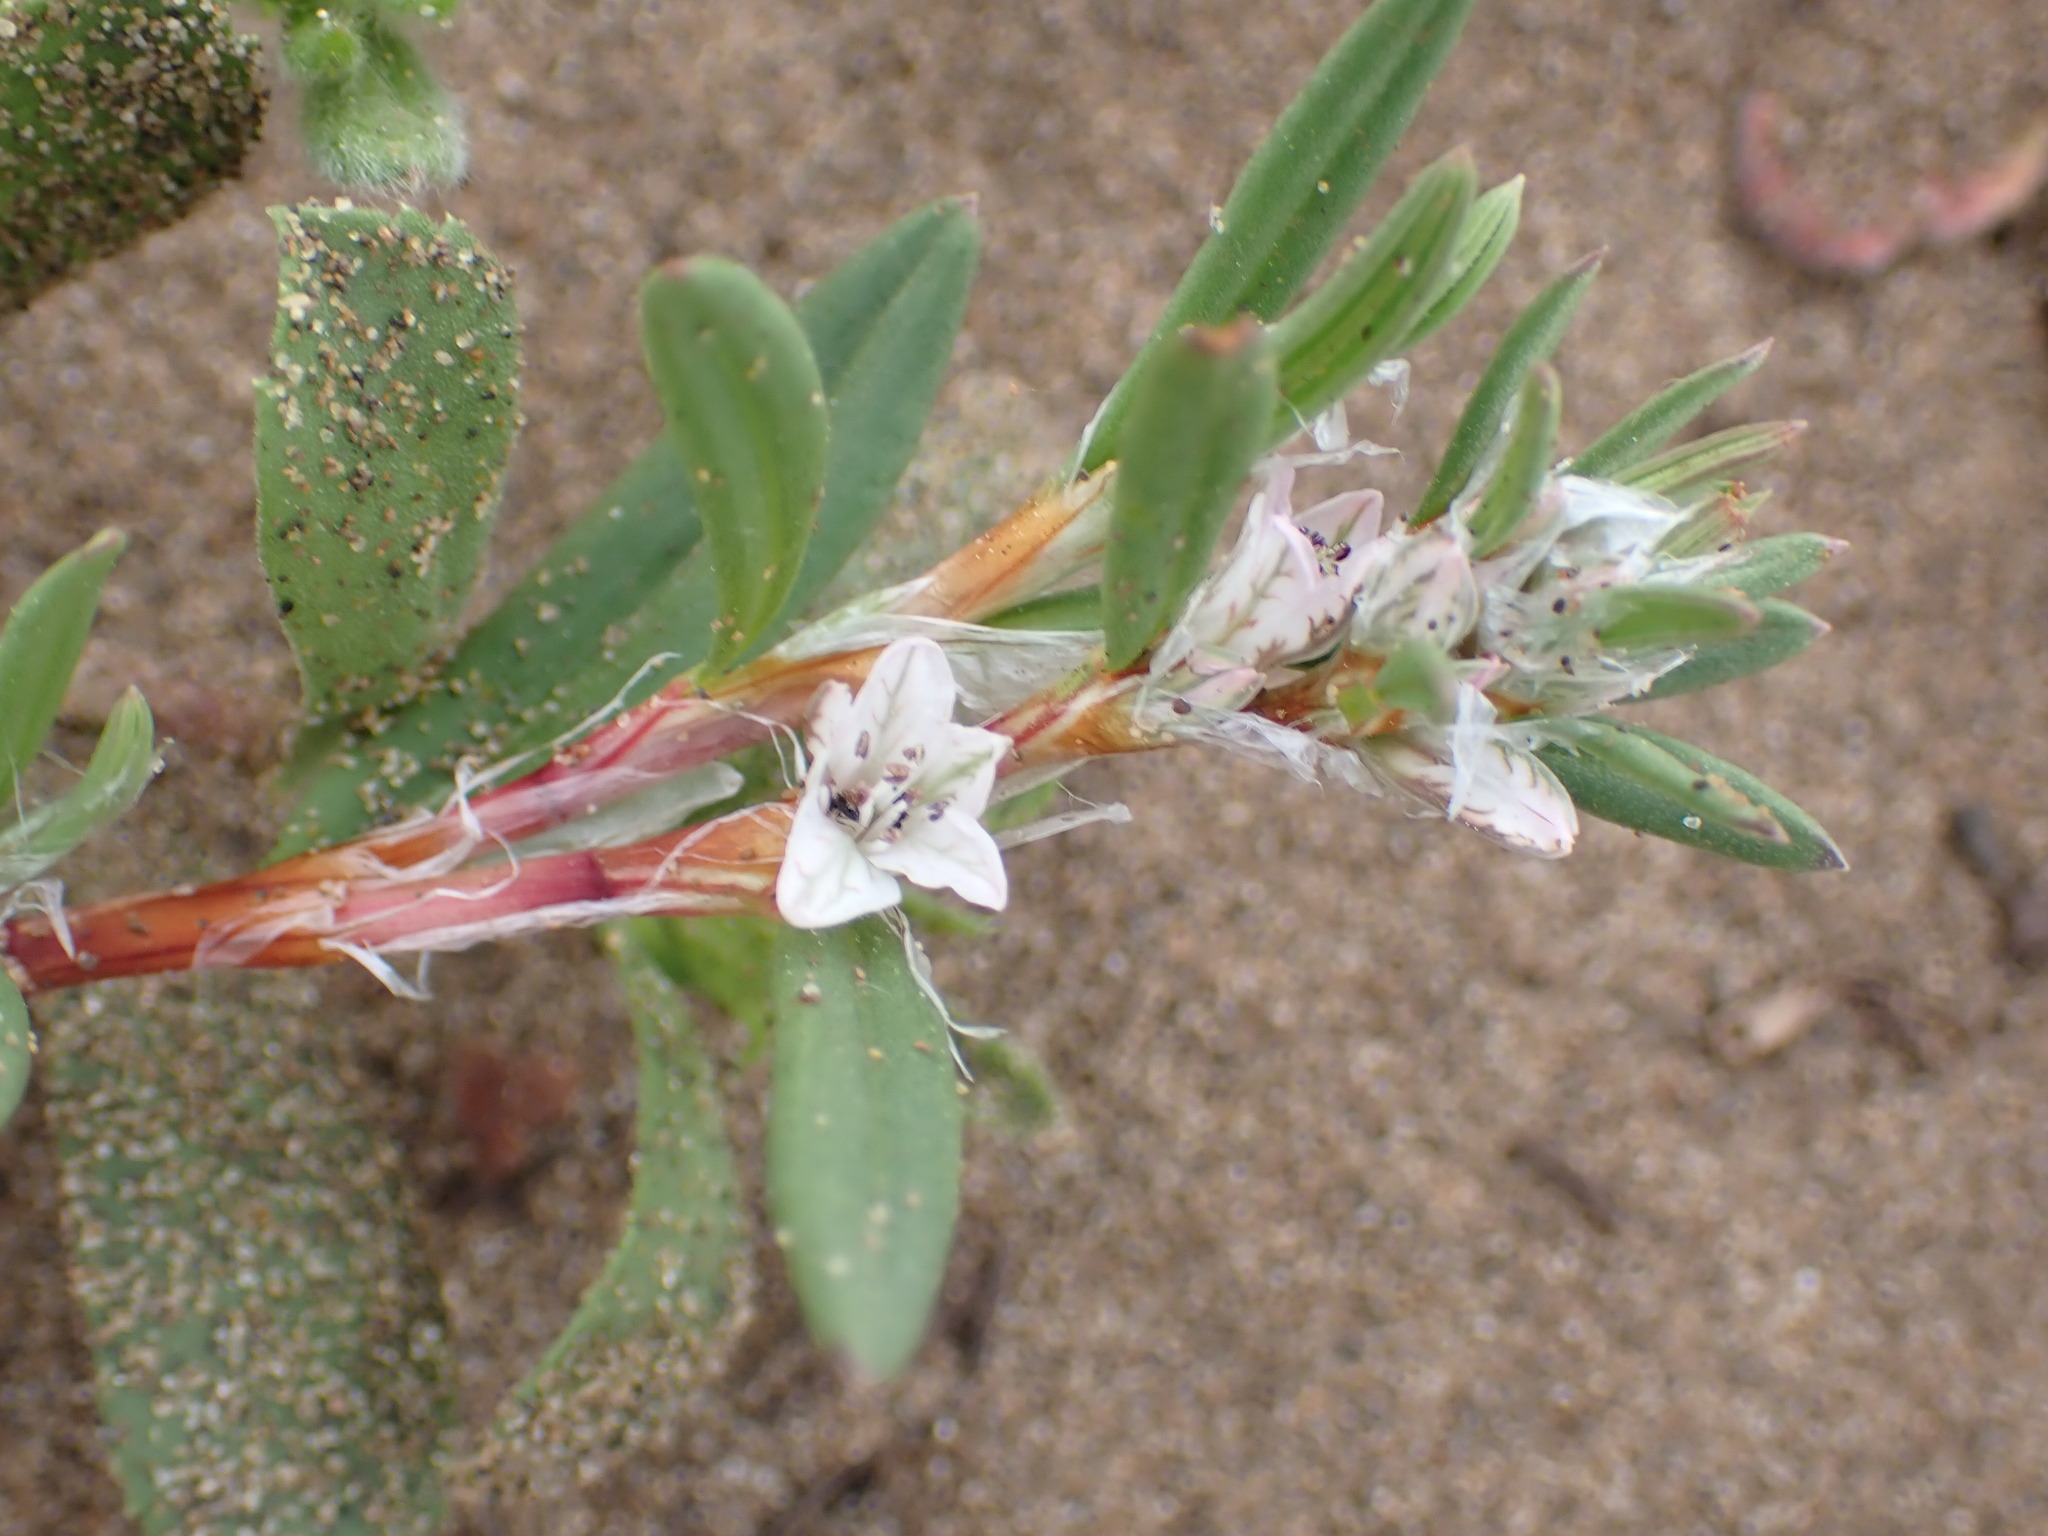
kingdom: Plantae
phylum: Tracheophyta
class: Magnoliopsida
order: Caryophyllales
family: Polygonaceae
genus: Polygonum
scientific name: Polygonum paronychia
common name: Dune knotweed
